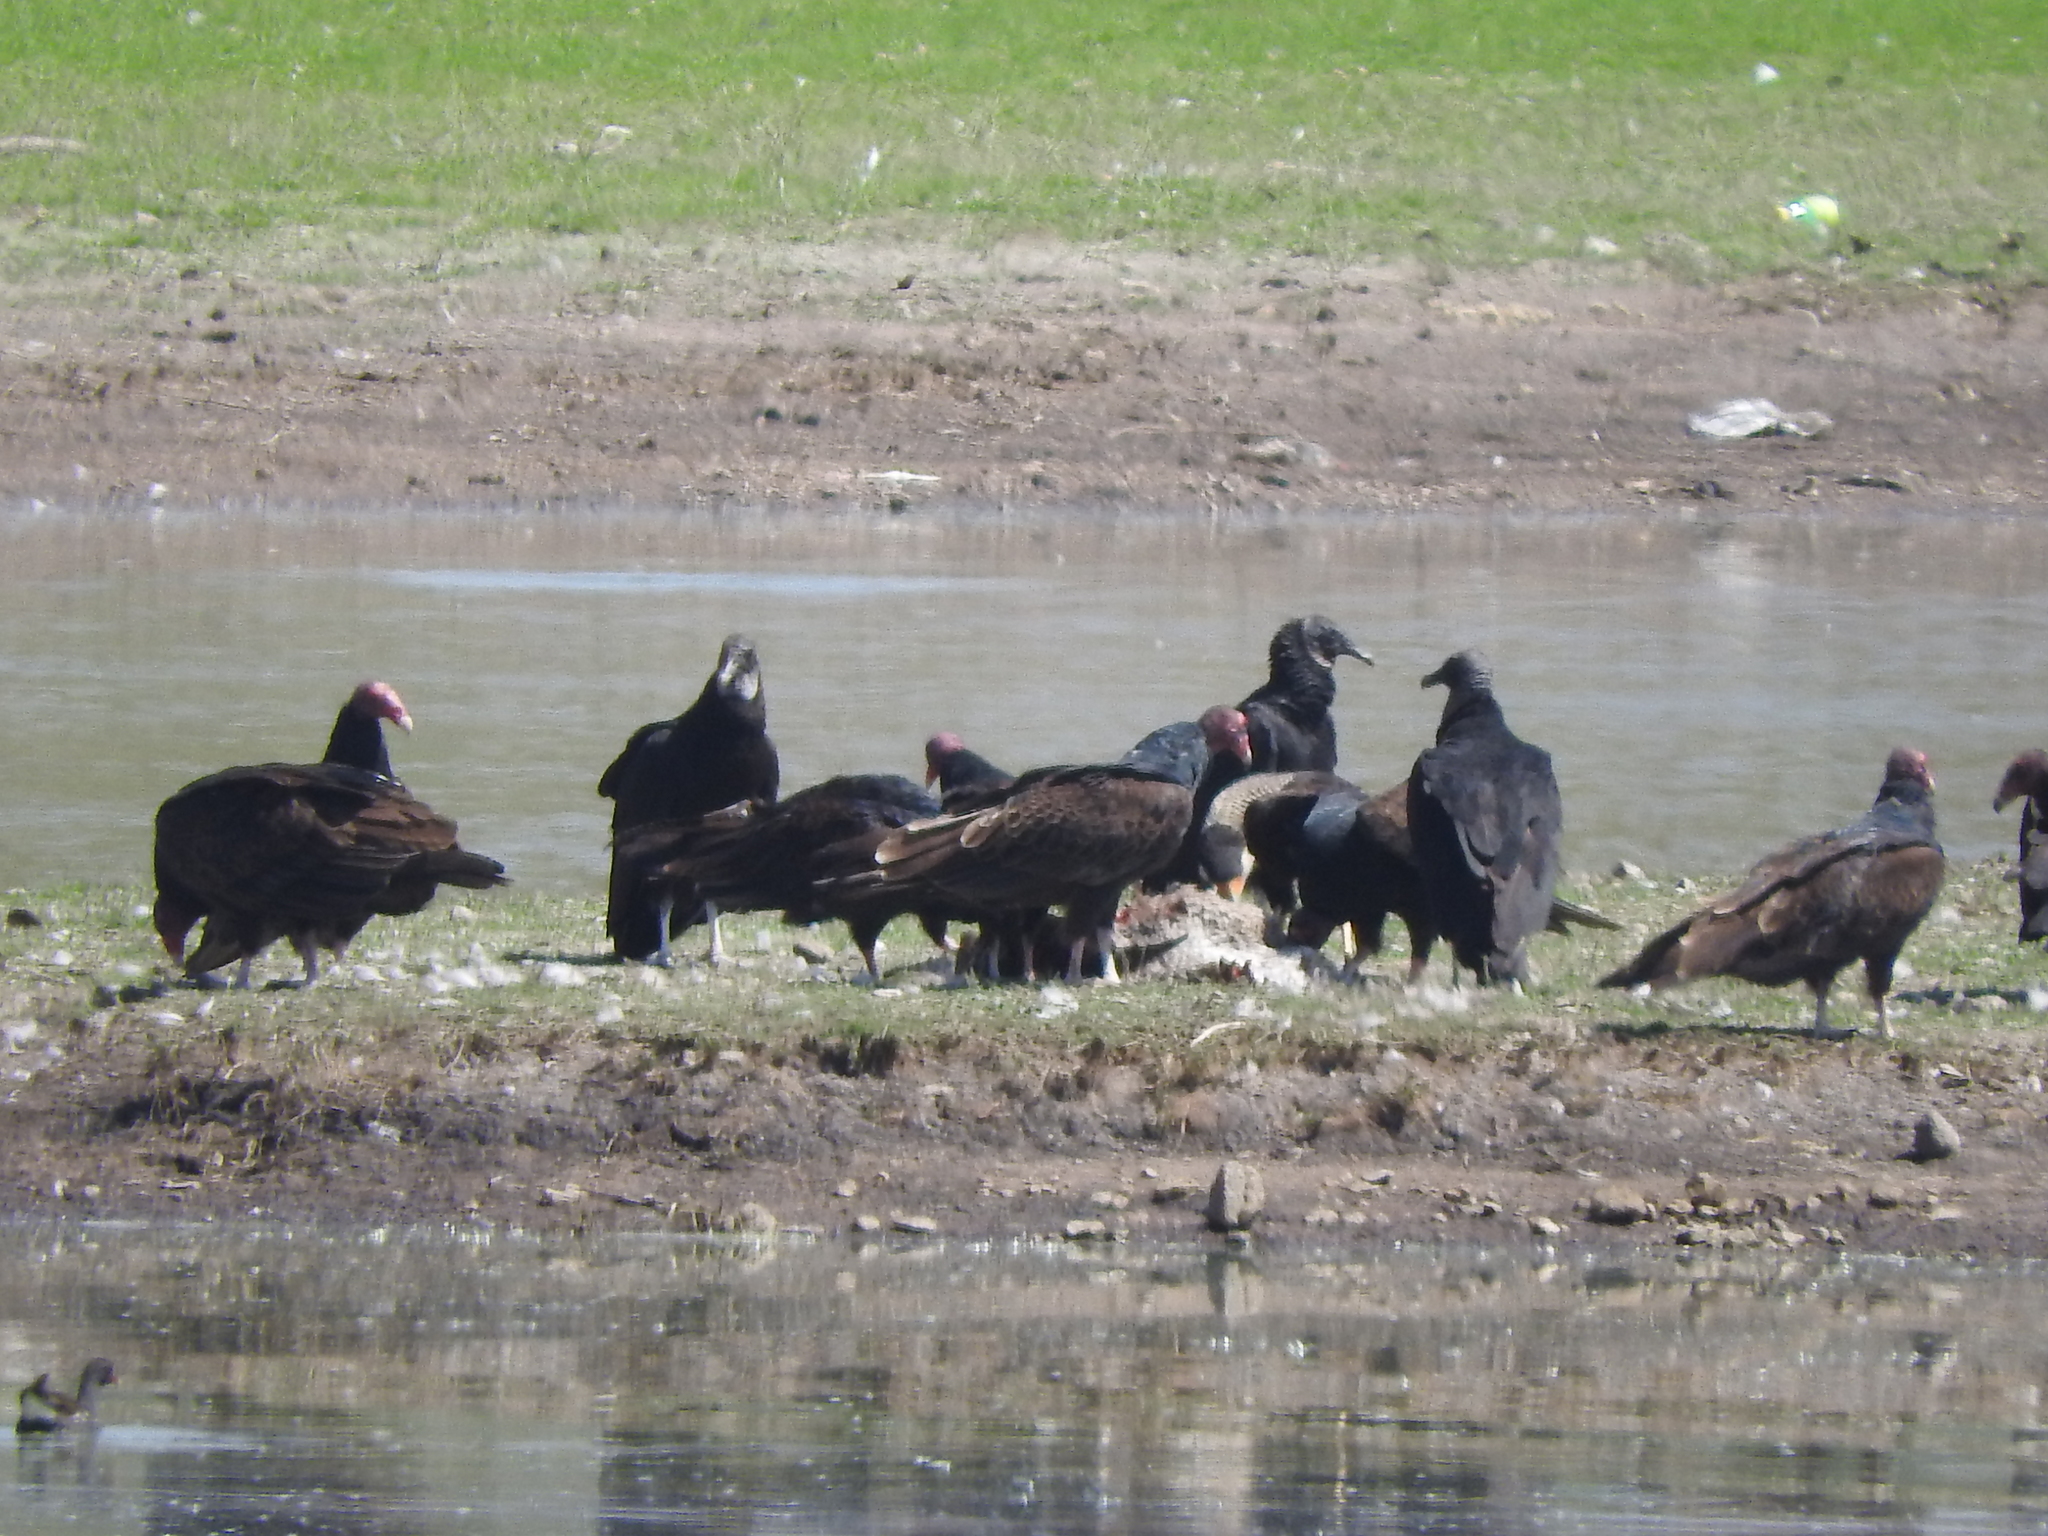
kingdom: Animalia
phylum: Chordata
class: Aves
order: Accipitriformes
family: Cathartidae
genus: Cathartes
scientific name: Cathartes aura
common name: Turkey vulture
